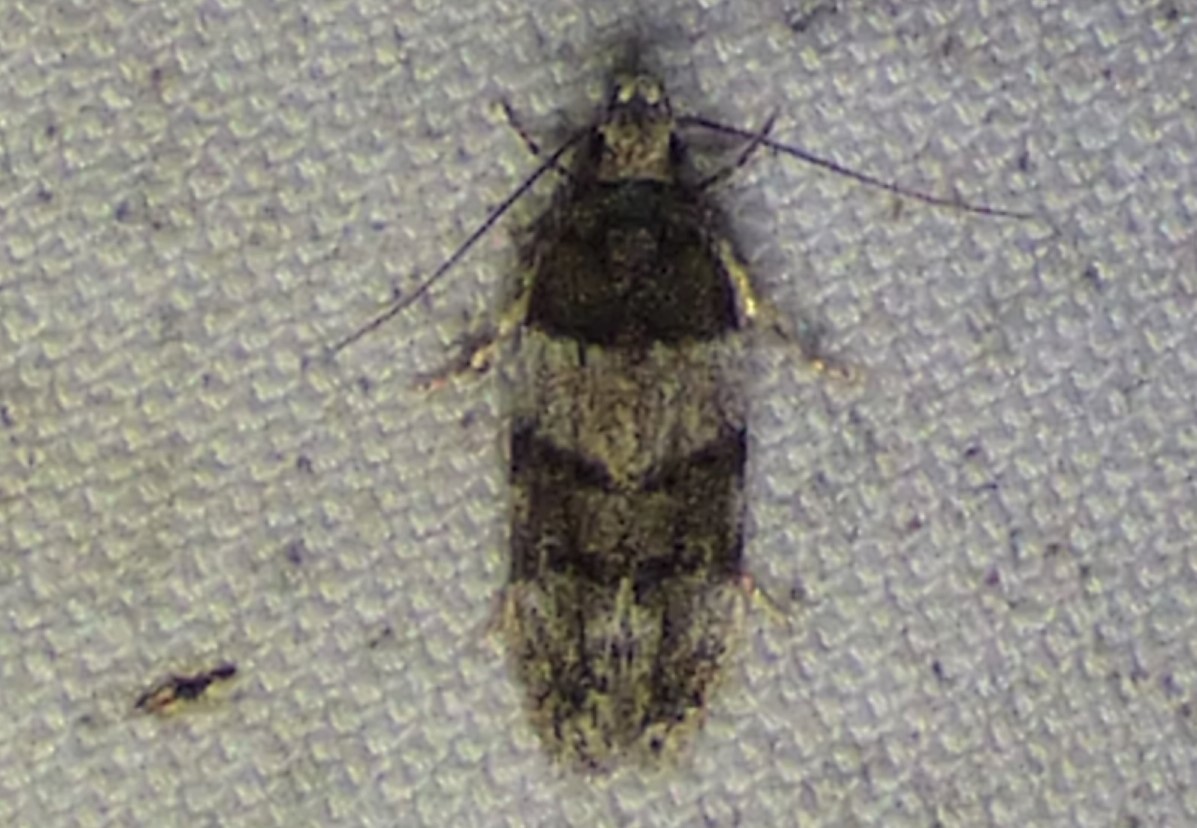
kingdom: Animalia
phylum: Arthropoda
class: Insecta
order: Lepidoptera
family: Gelechiidae
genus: Pubitelphusa
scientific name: Pubitelphusa latifasciella
